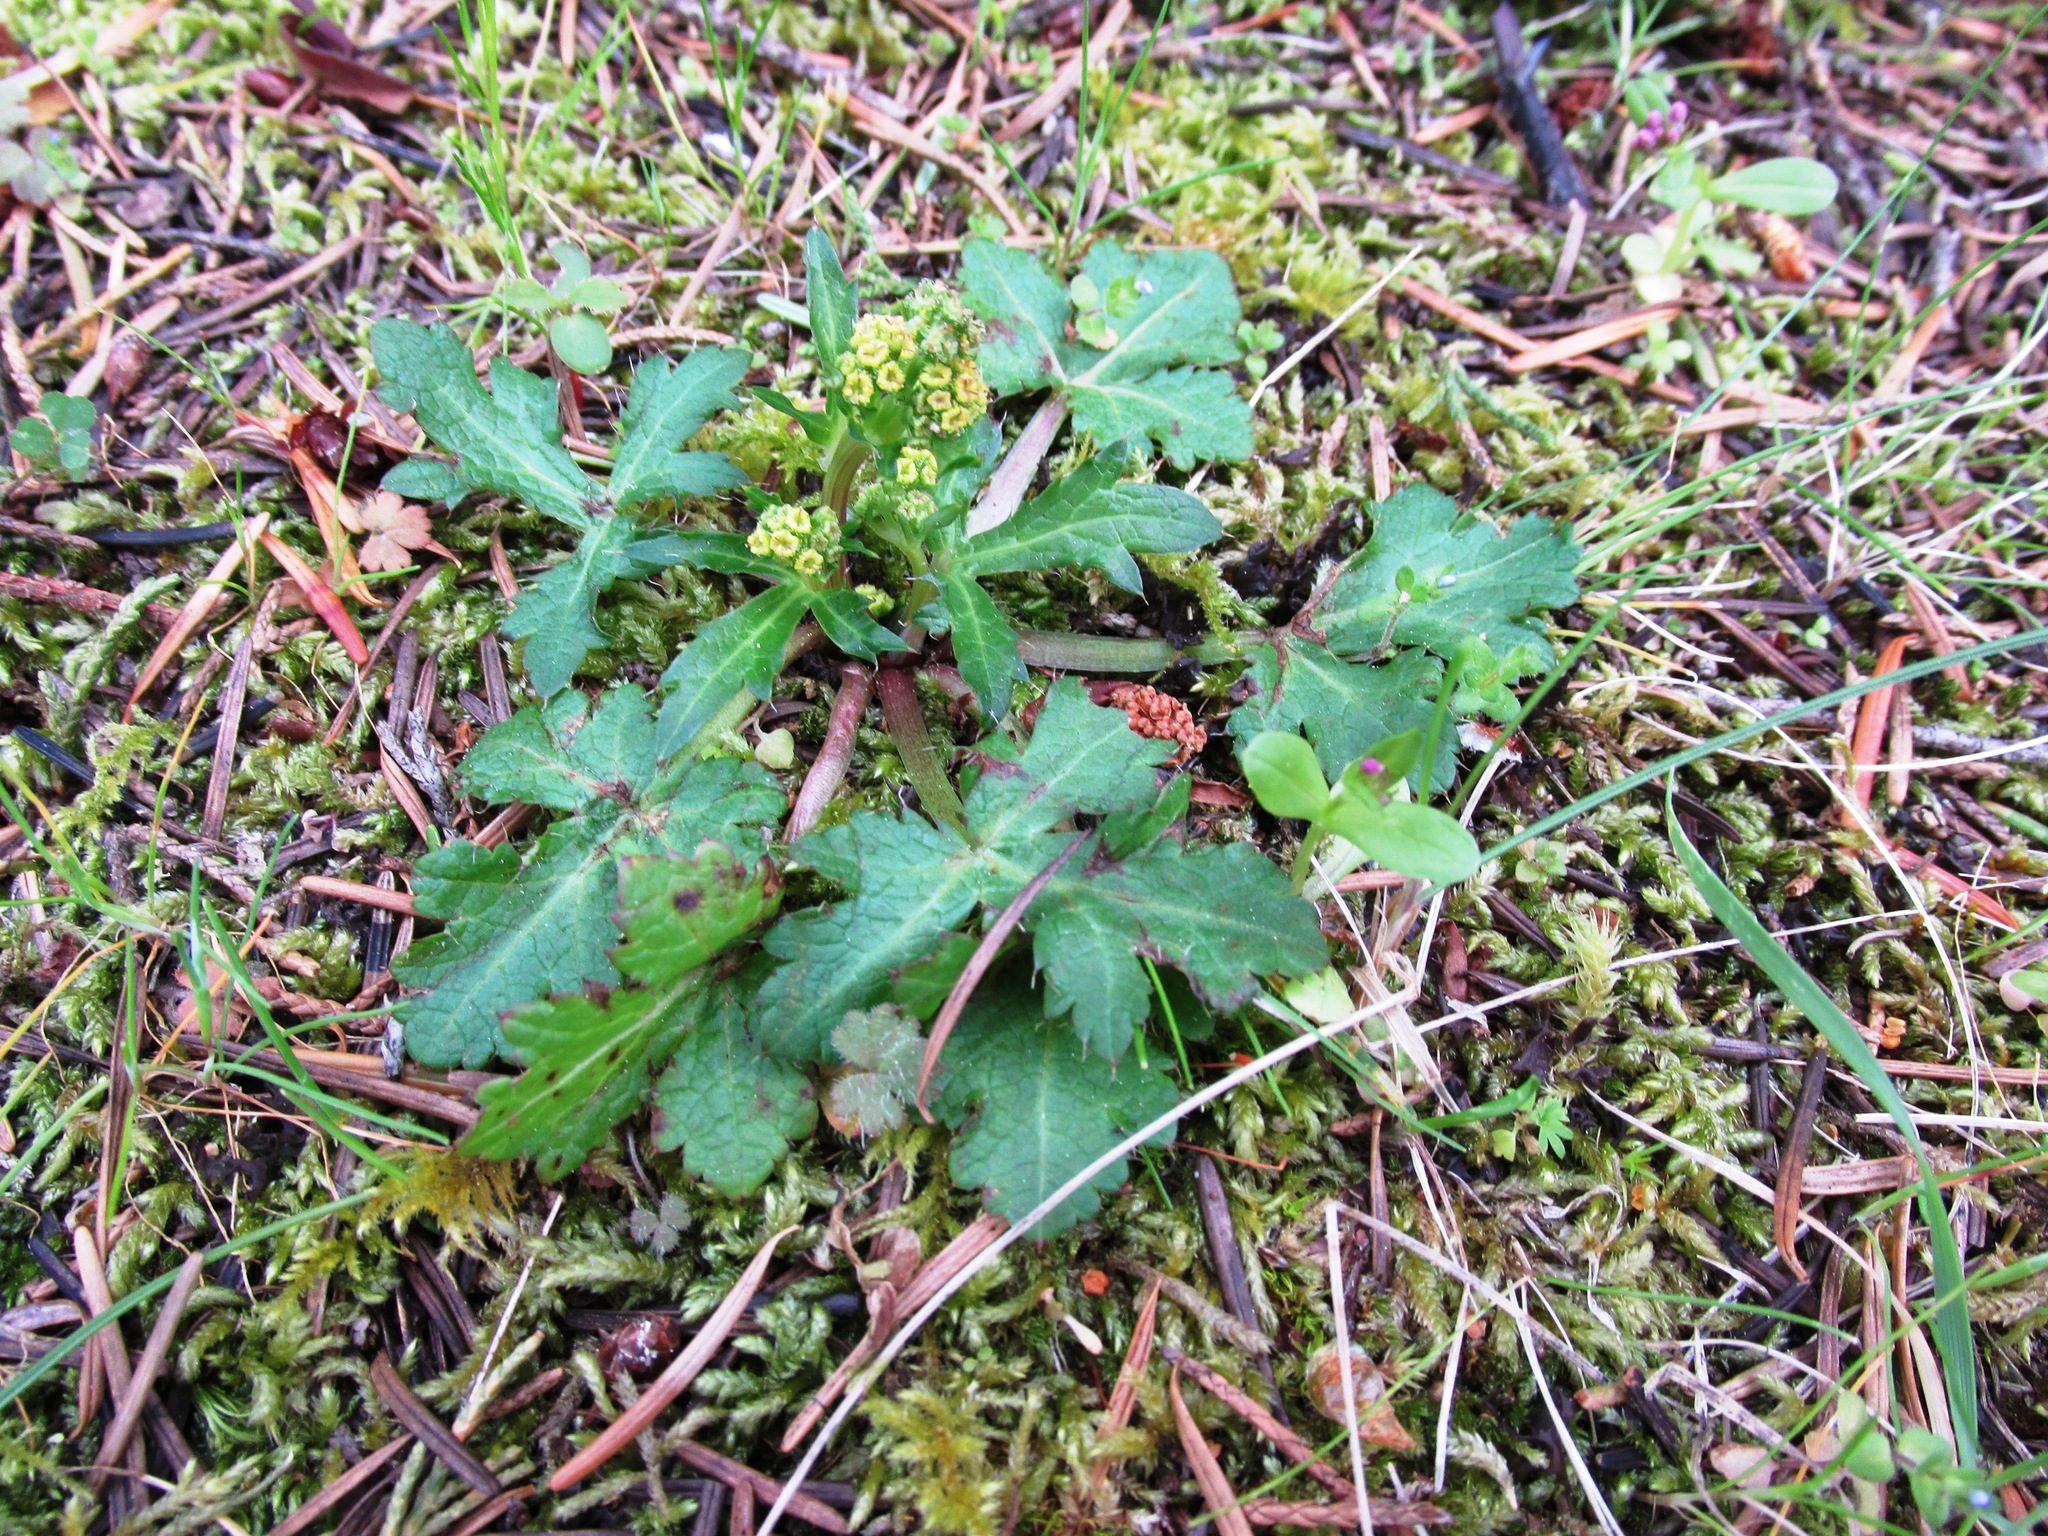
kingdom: Plantae
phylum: Tracheophyta
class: Magnoliopsida
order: Apiales
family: Apiaceae
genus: Sanicula
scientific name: Sanicula crassicaulis
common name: Western snakeroot
